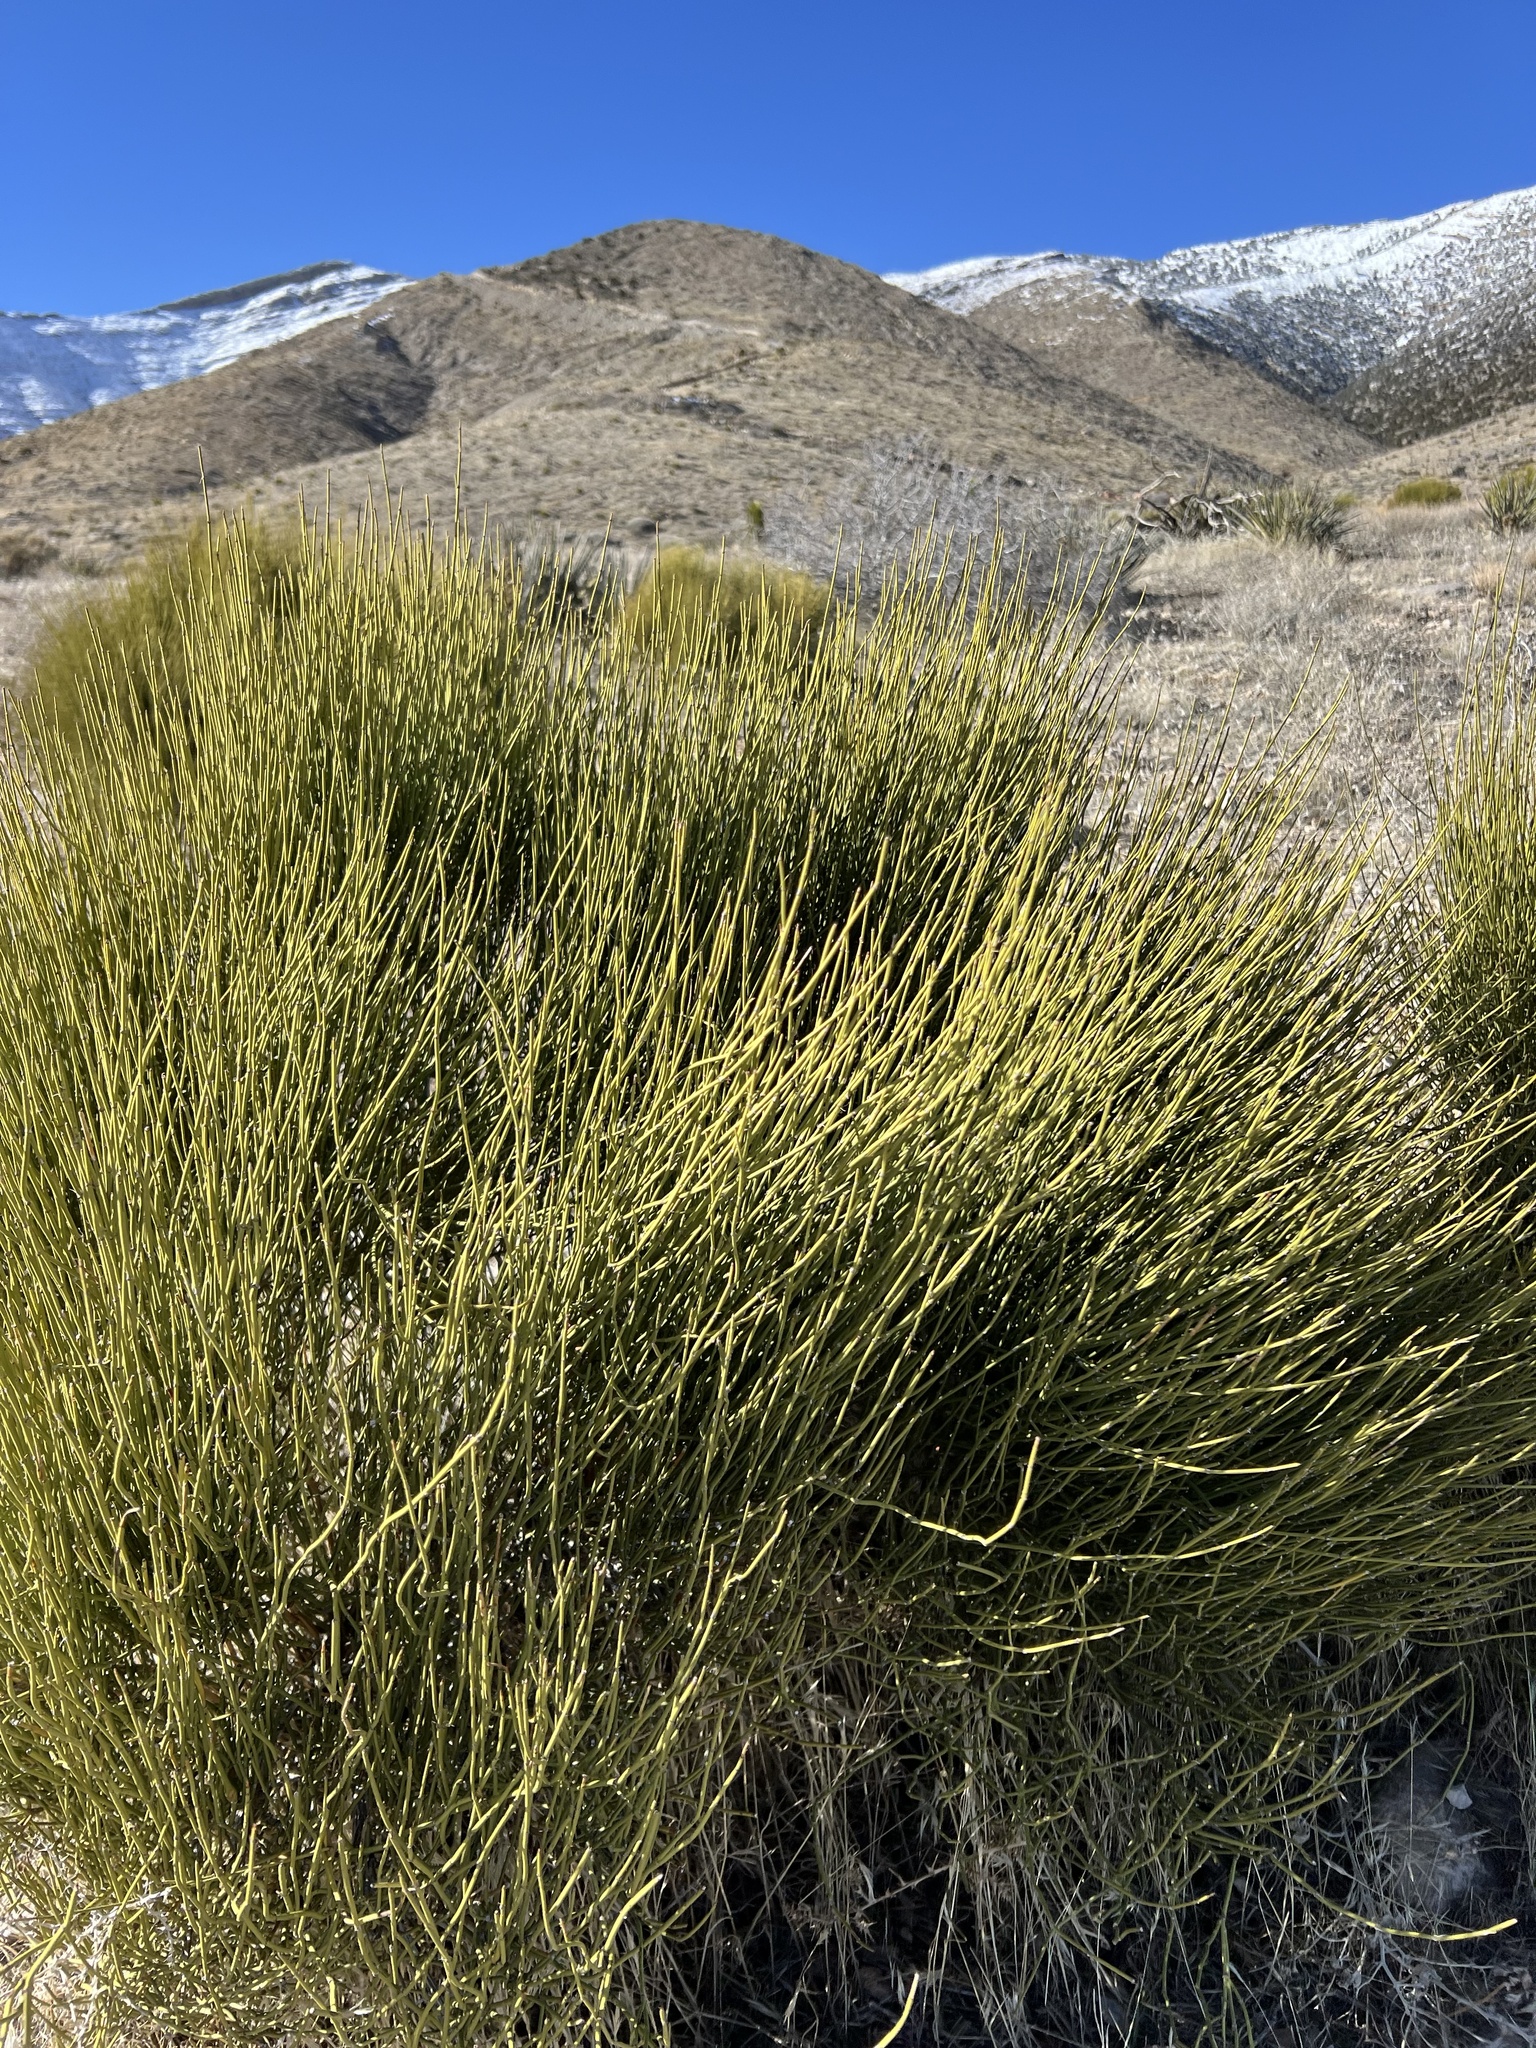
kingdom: Plantae
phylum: Tracheophyta
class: Gnetopsida
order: Ephedrales
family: Ephedraceae
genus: Ephedra
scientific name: Ephedra viridis
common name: Green ephedra
